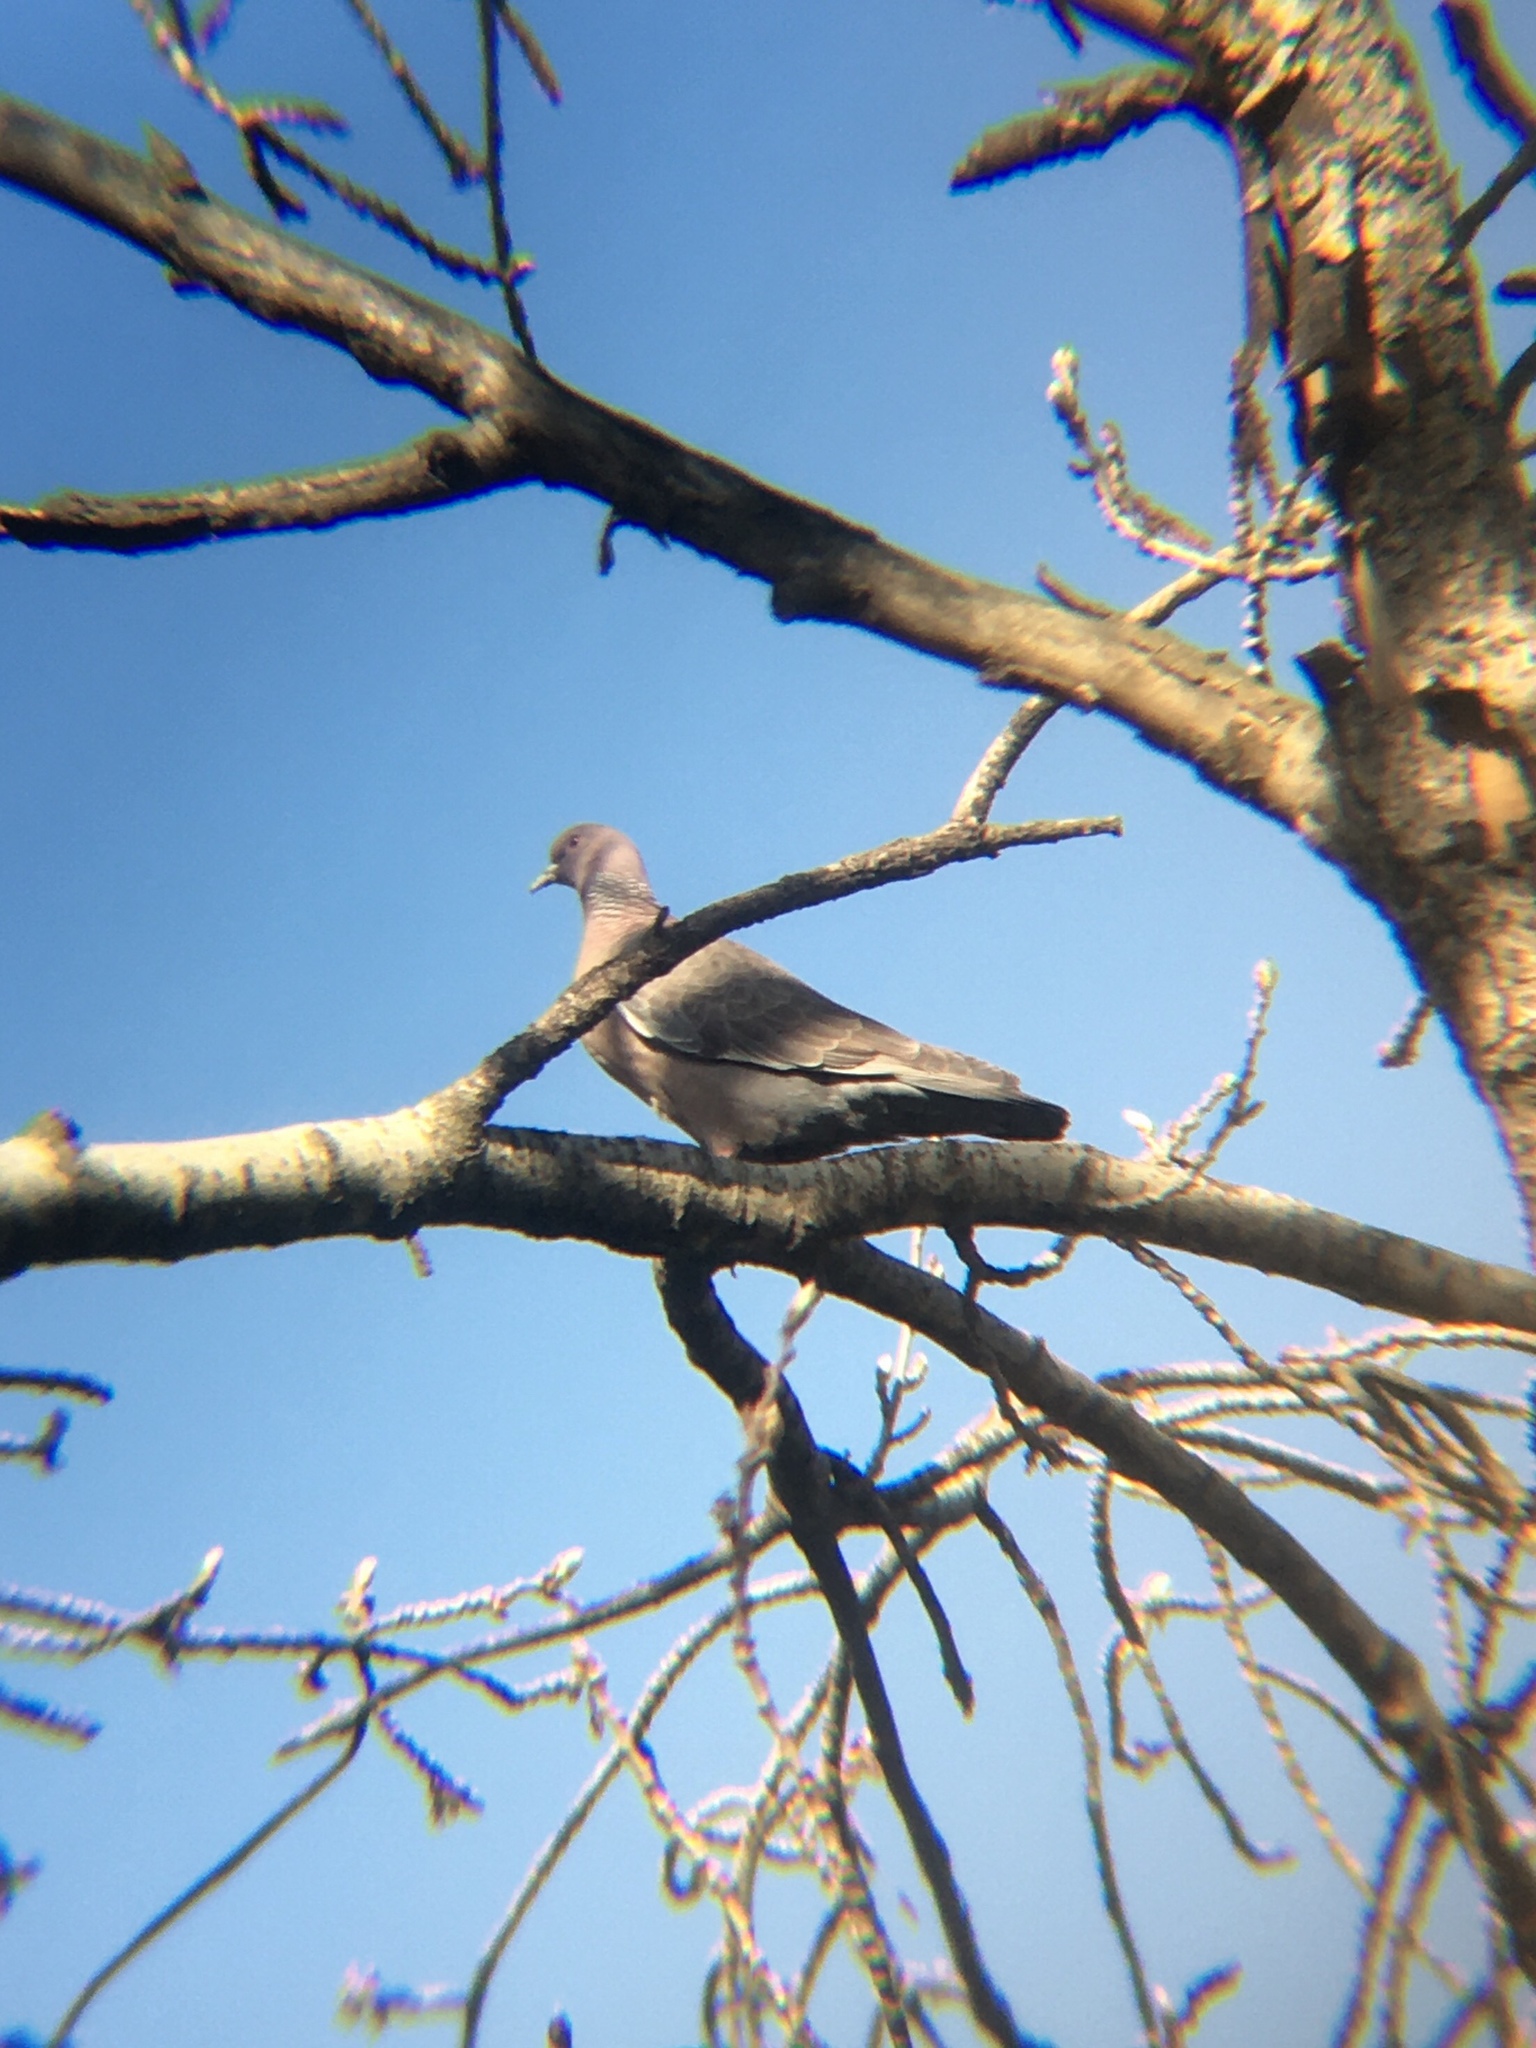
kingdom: Animalia
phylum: Chordata
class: Aves
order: Columbiformes
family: Columbidae
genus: Patagioenas
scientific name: Patagioenas picazuro
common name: Picazuro pigeon
